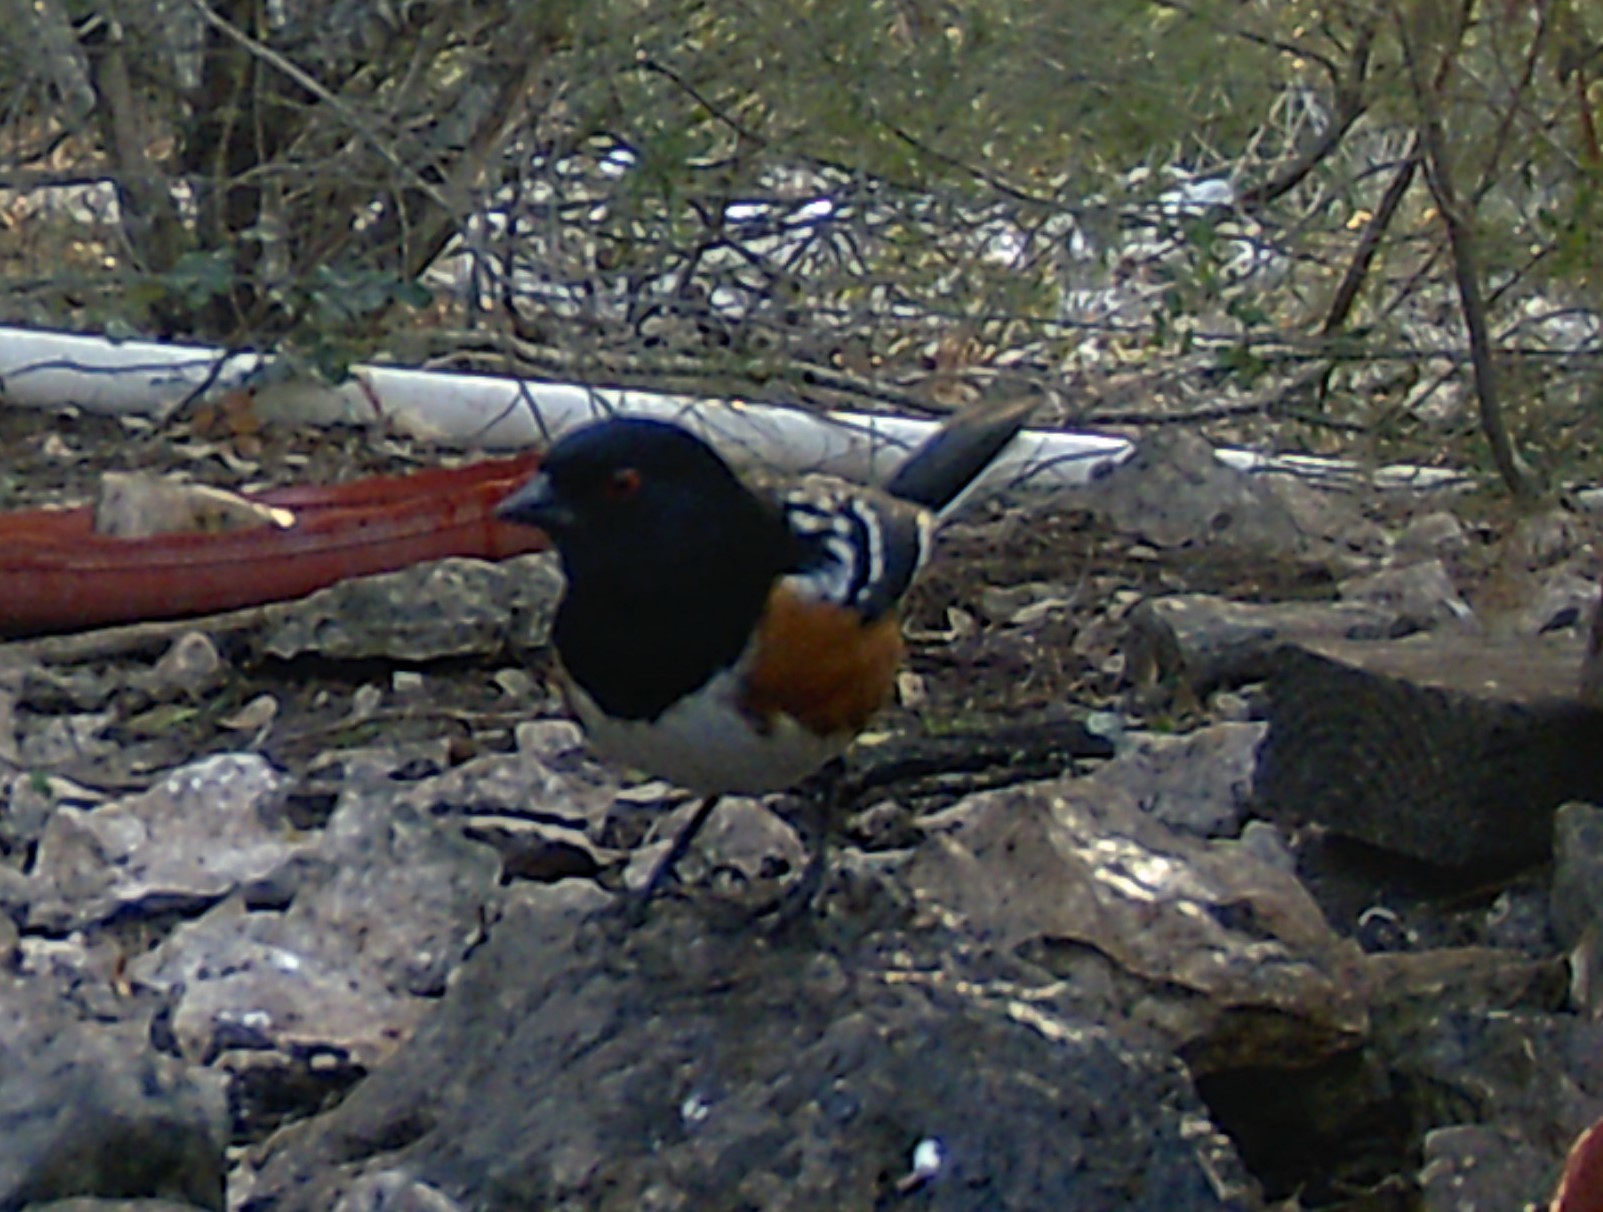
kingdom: Animalia
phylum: Chordata
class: Aves
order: Passeriformes
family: Passerellidae
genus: Pipilo
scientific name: Pipilo maculatus
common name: Spotted towhee
